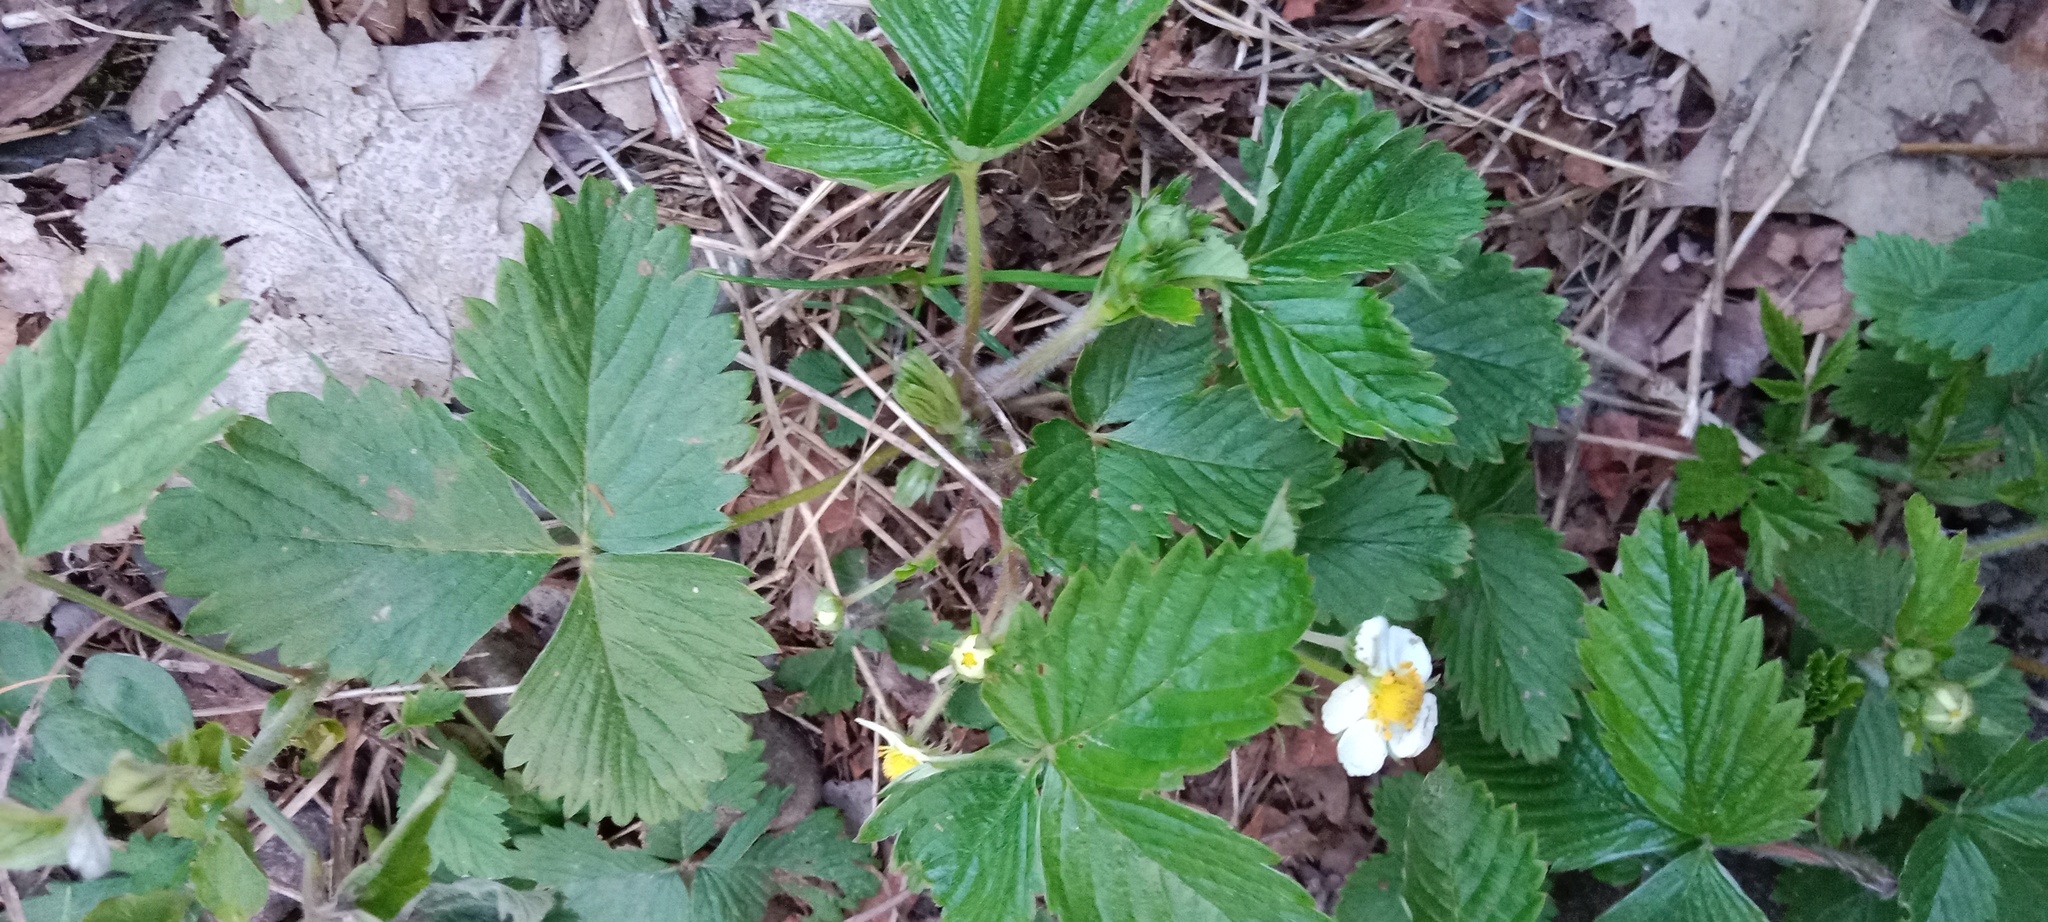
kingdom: Plantae
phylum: Tracheophyta
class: Magnoliopsida
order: Rosales
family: Rosaceae
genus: Fragaria
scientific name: Fragaria vesca
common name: Wild strawberry
